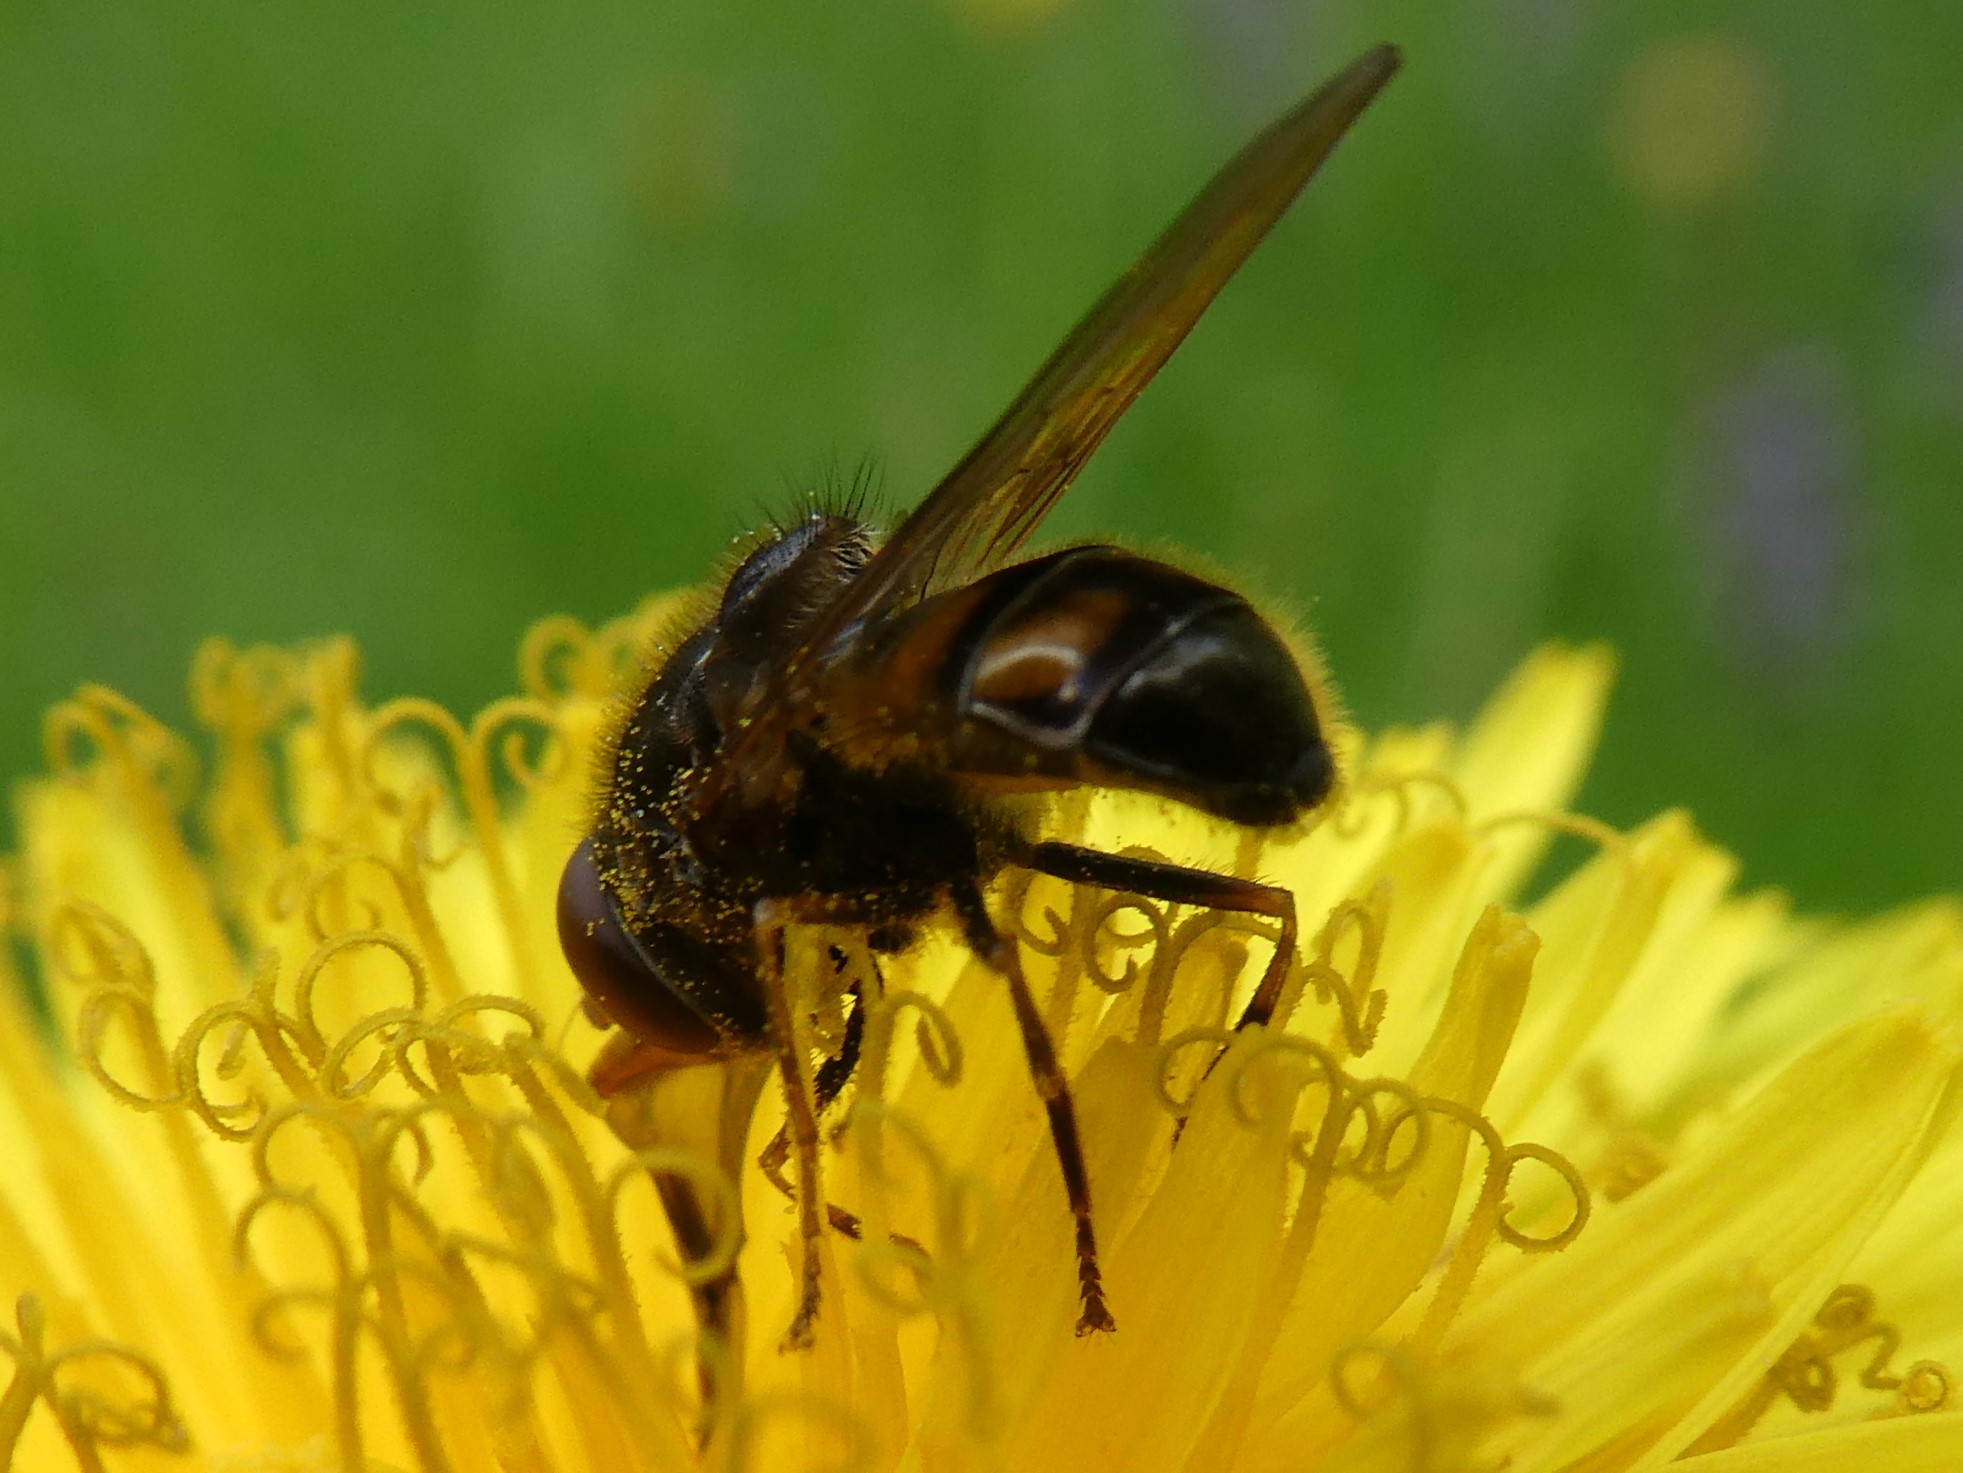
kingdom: Animalia
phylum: Arthropoda
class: Insecta
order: Diptera
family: Syrphidae
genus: Rhingia
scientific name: Rhingia nasica
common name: American snout fly
